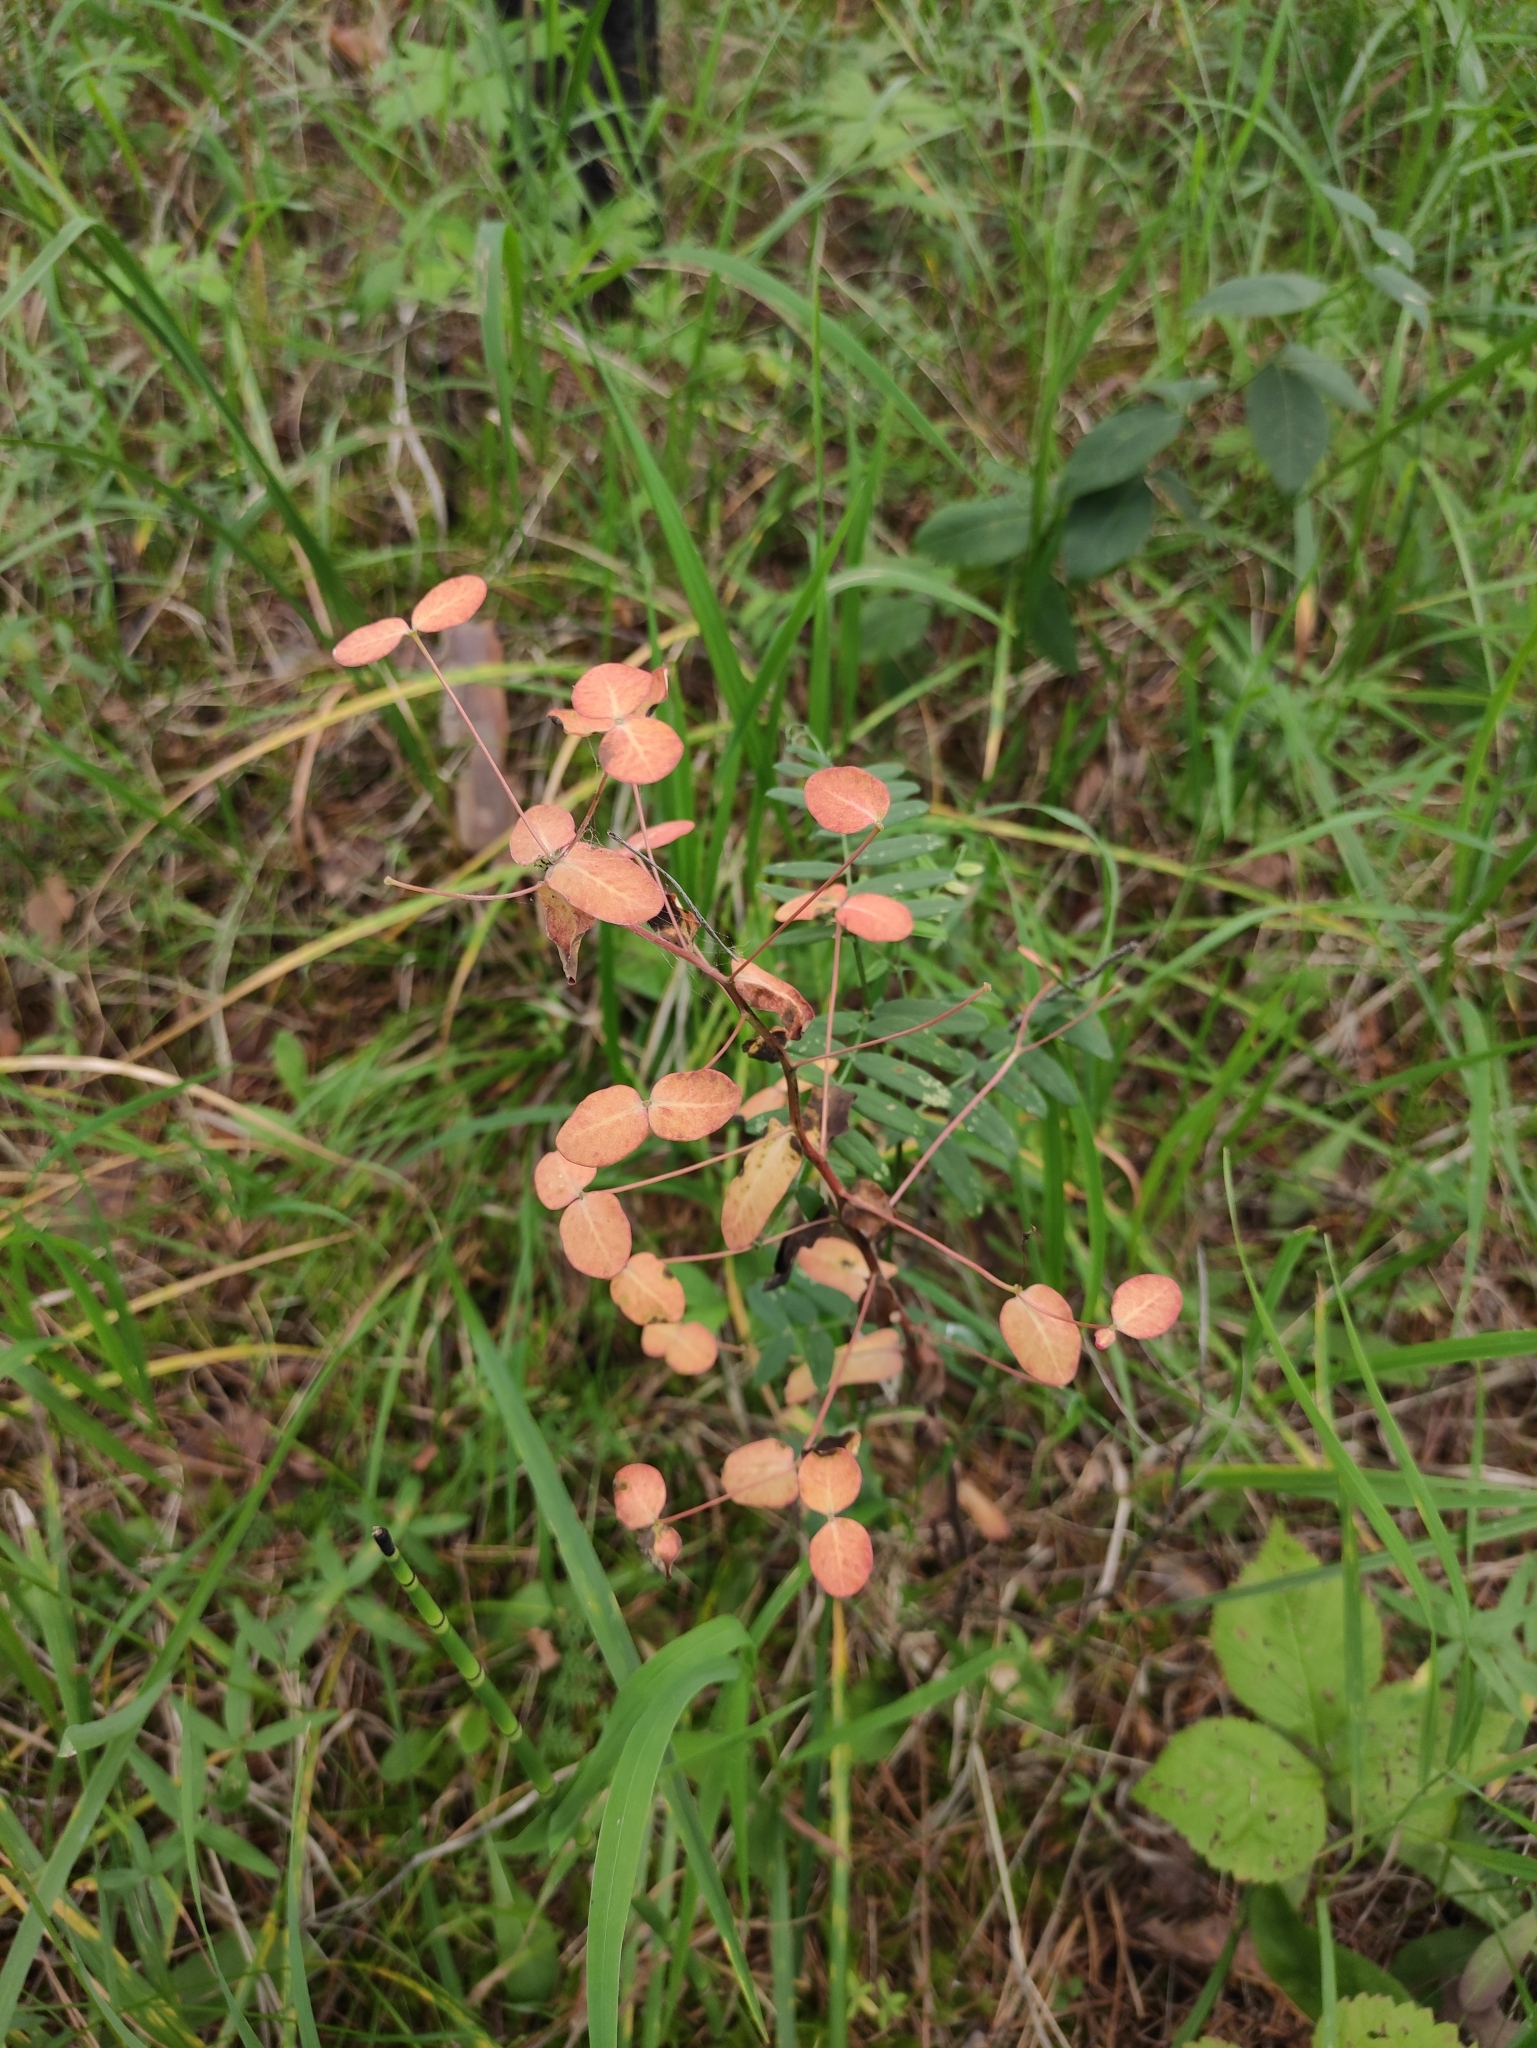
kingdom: Plantae
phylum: Tracheophyta
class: Magnoliopsida
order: Malpighiales
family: Euphorbiaceae
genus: Euphorbia
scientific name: Euphorbia jenisseiensis
